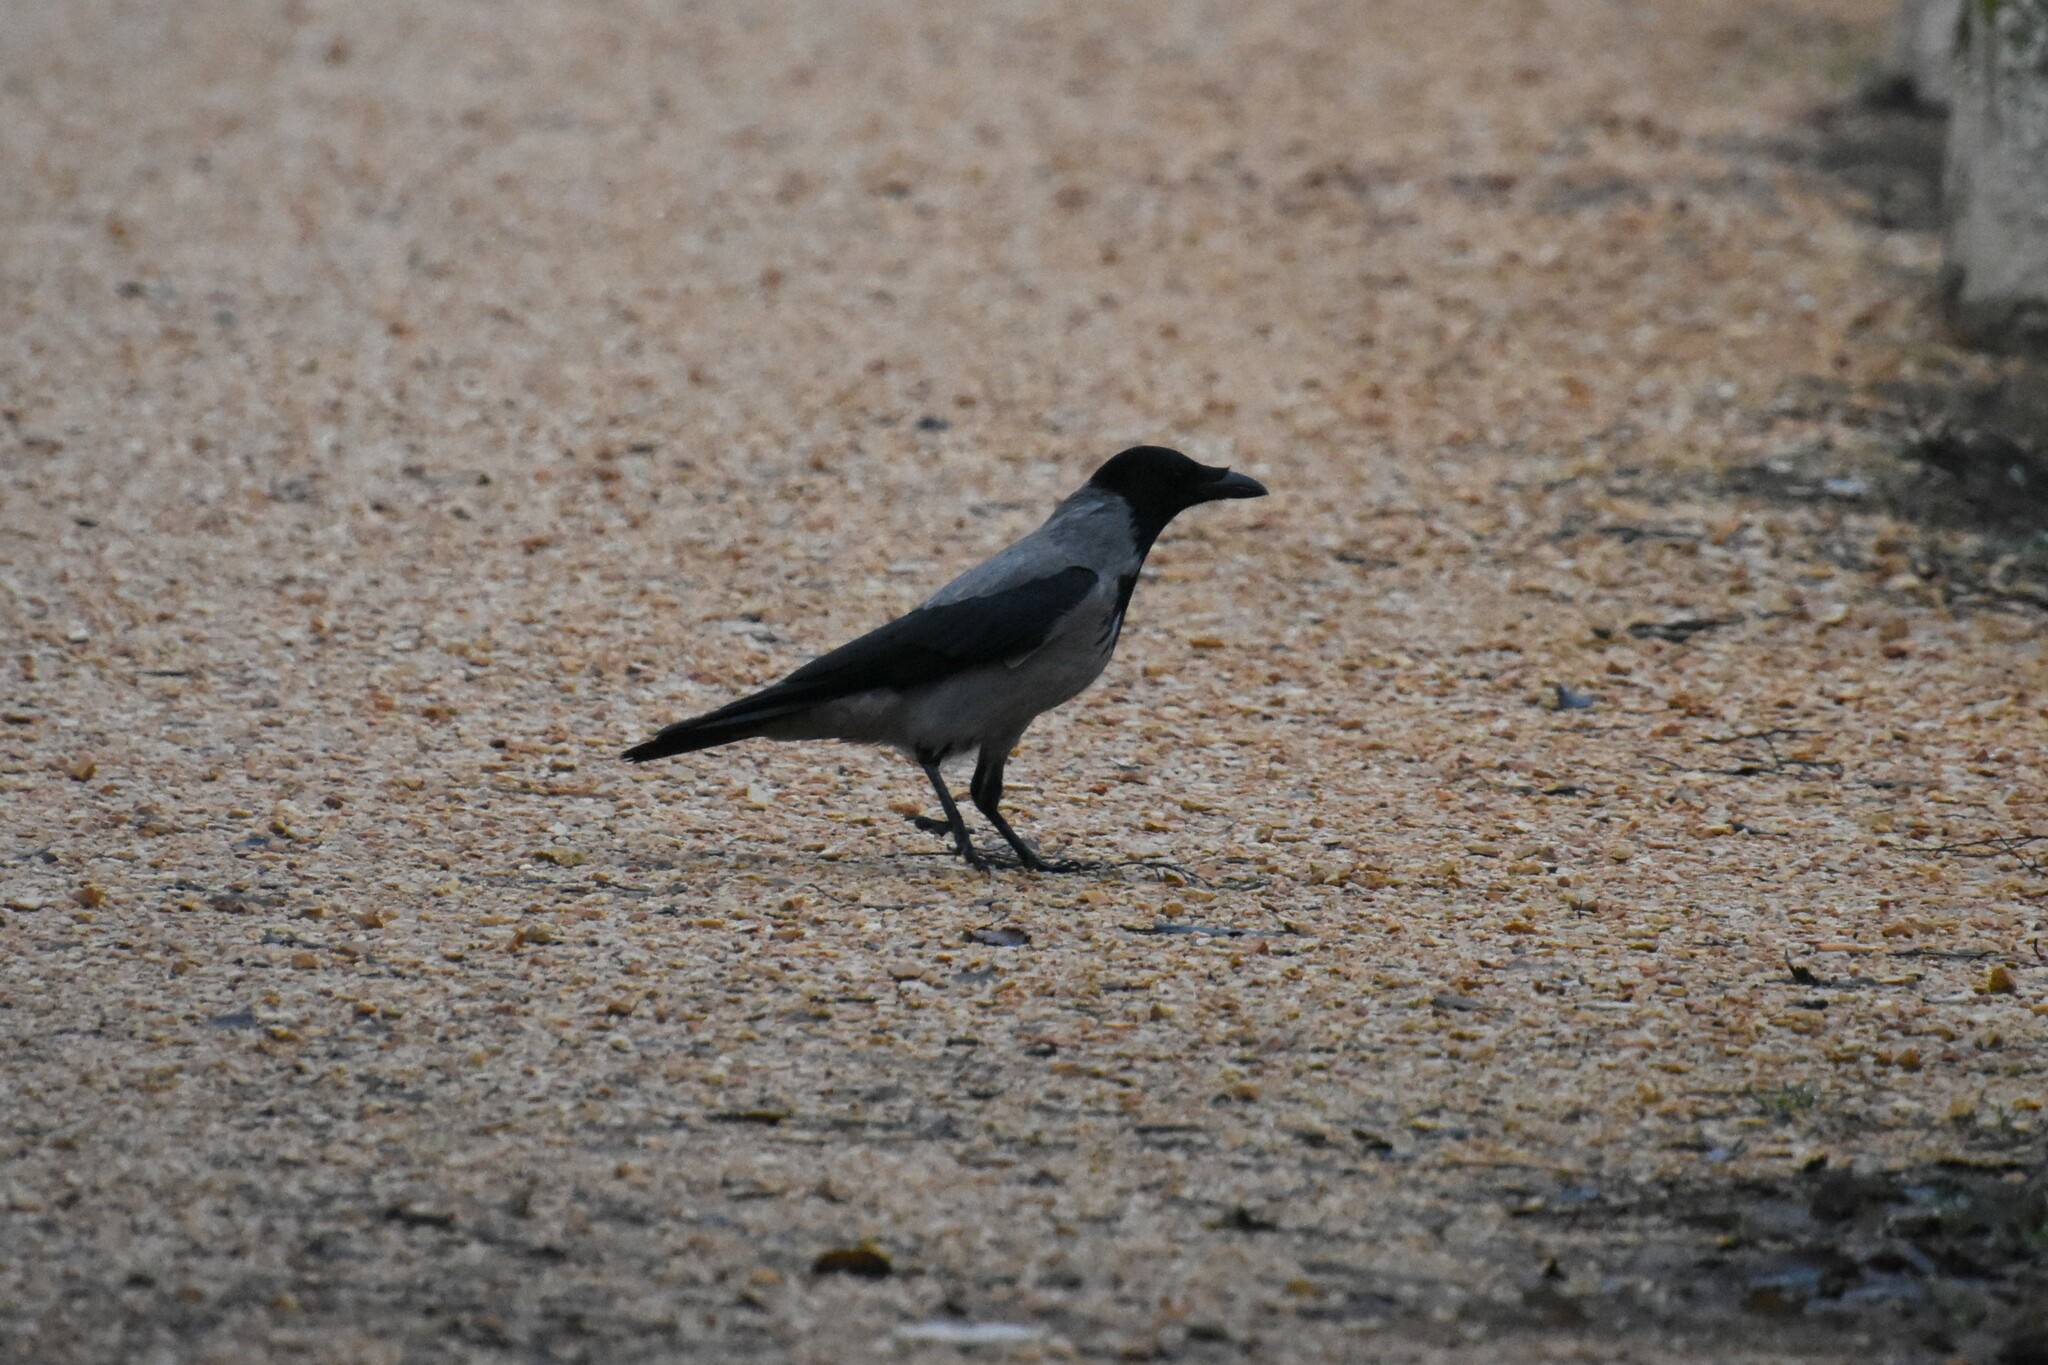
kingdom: Animalia
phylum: Chordata
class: Aves
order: Passeriformes
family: Corvidae
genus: Corvus
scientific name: Corvus cornix
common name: Hooded crow
